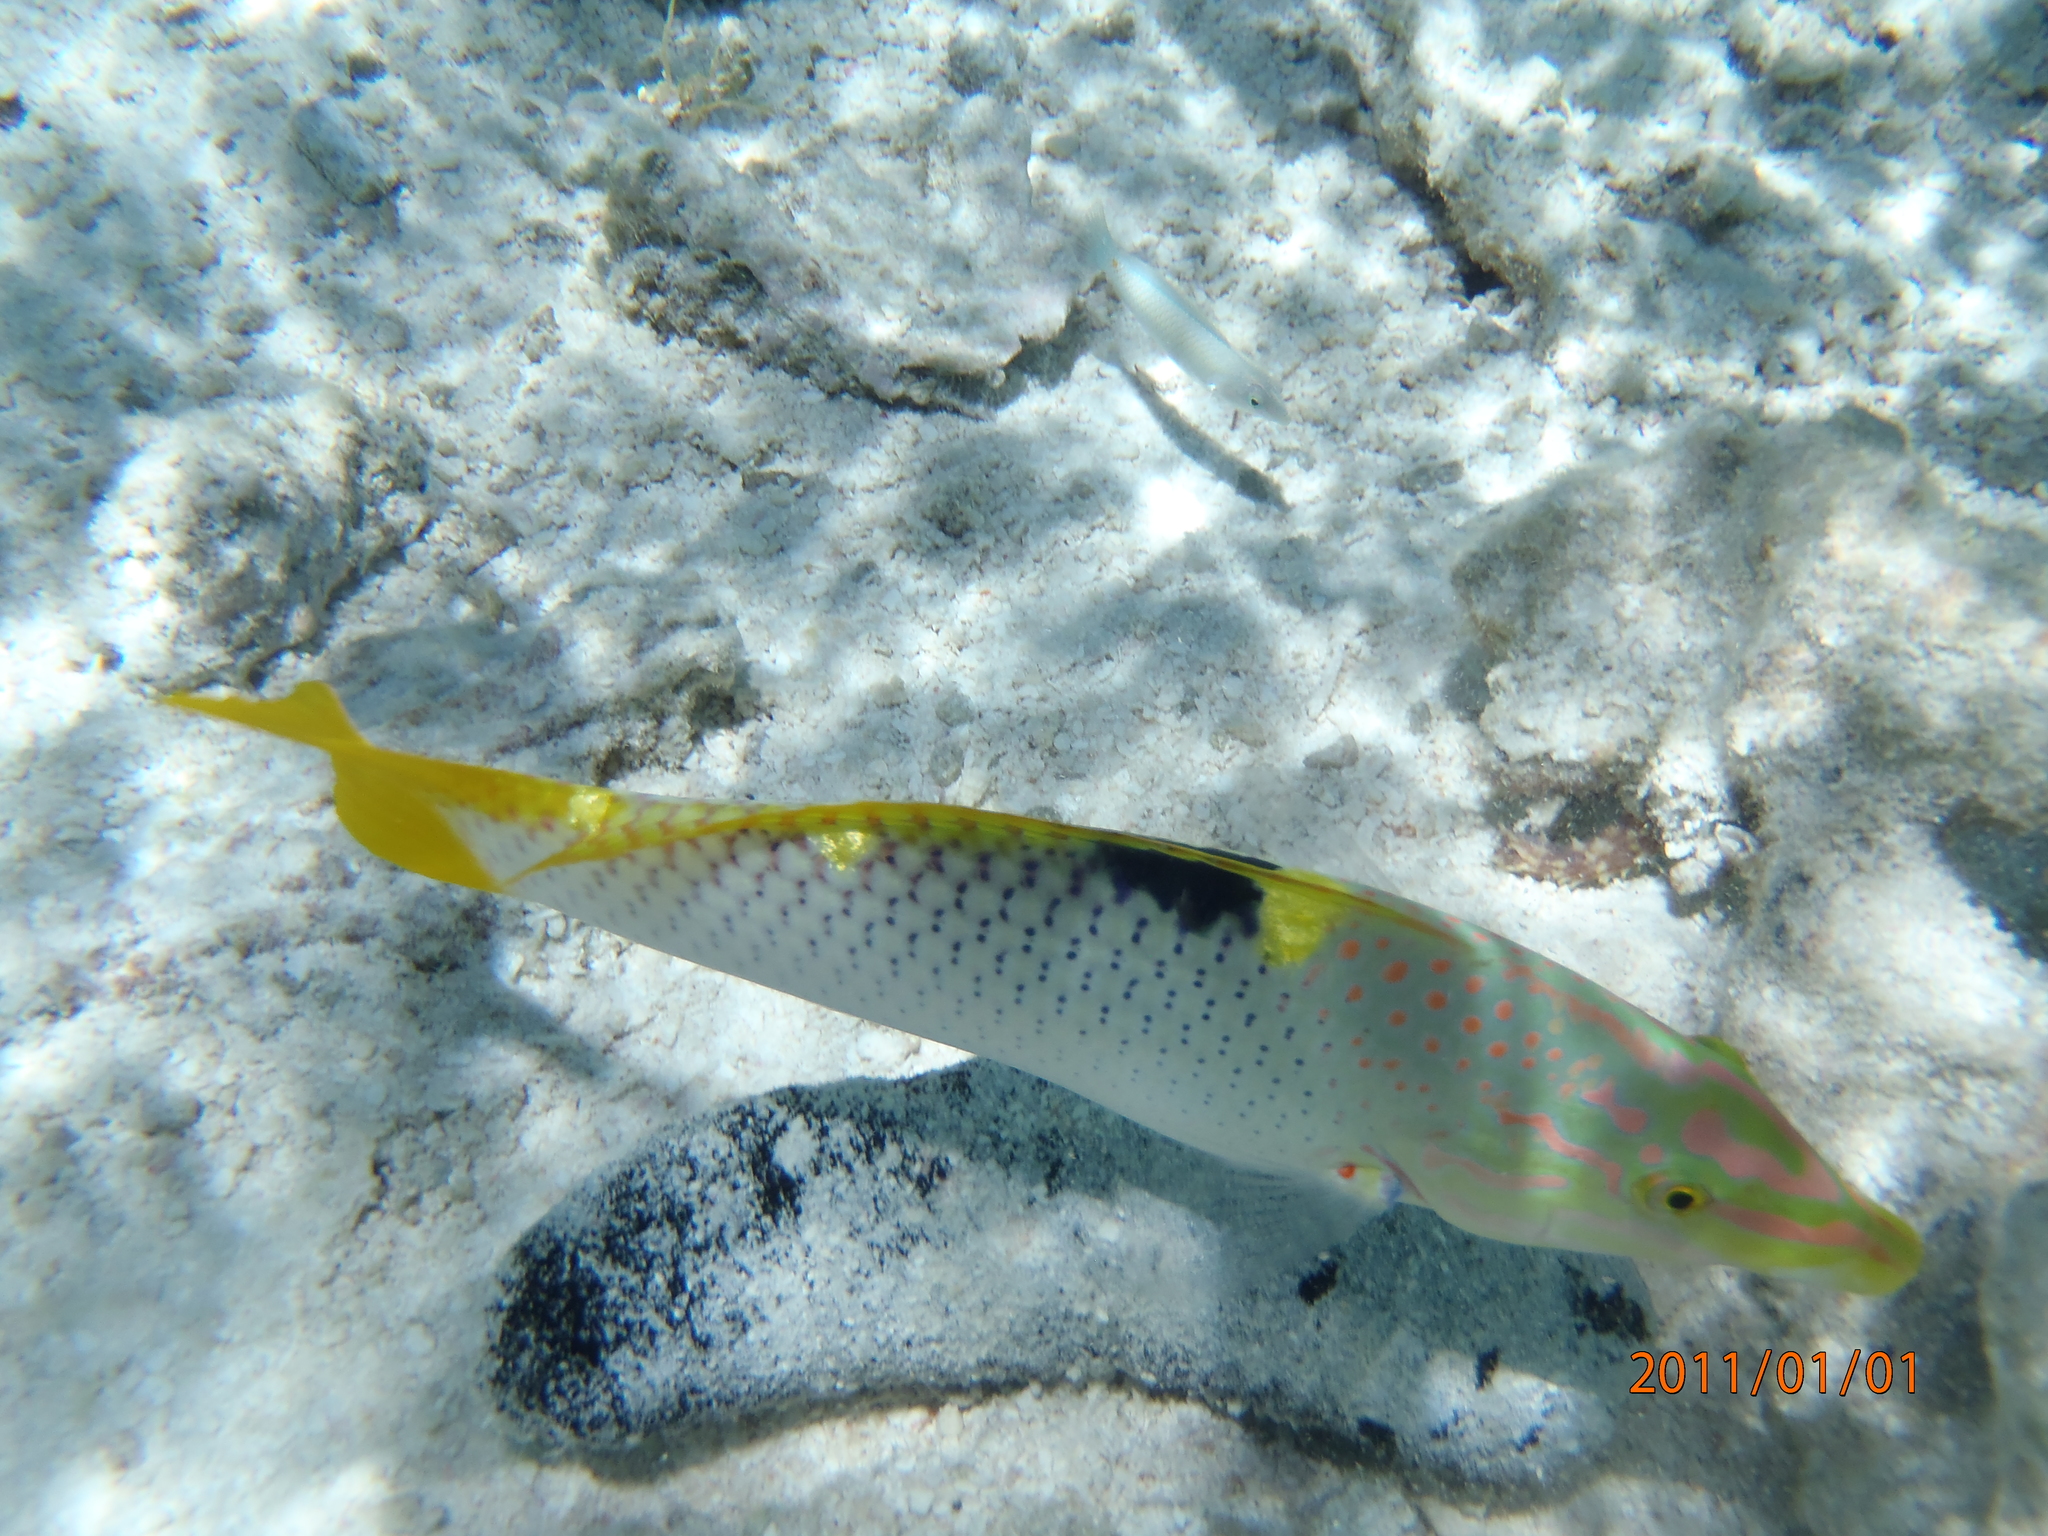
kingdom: Animalia
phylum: Chordata
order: Perciformes
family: Labridae
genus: Halichoeres
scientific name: Halichoeres hortulanus
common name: Checkerboard wrasse
